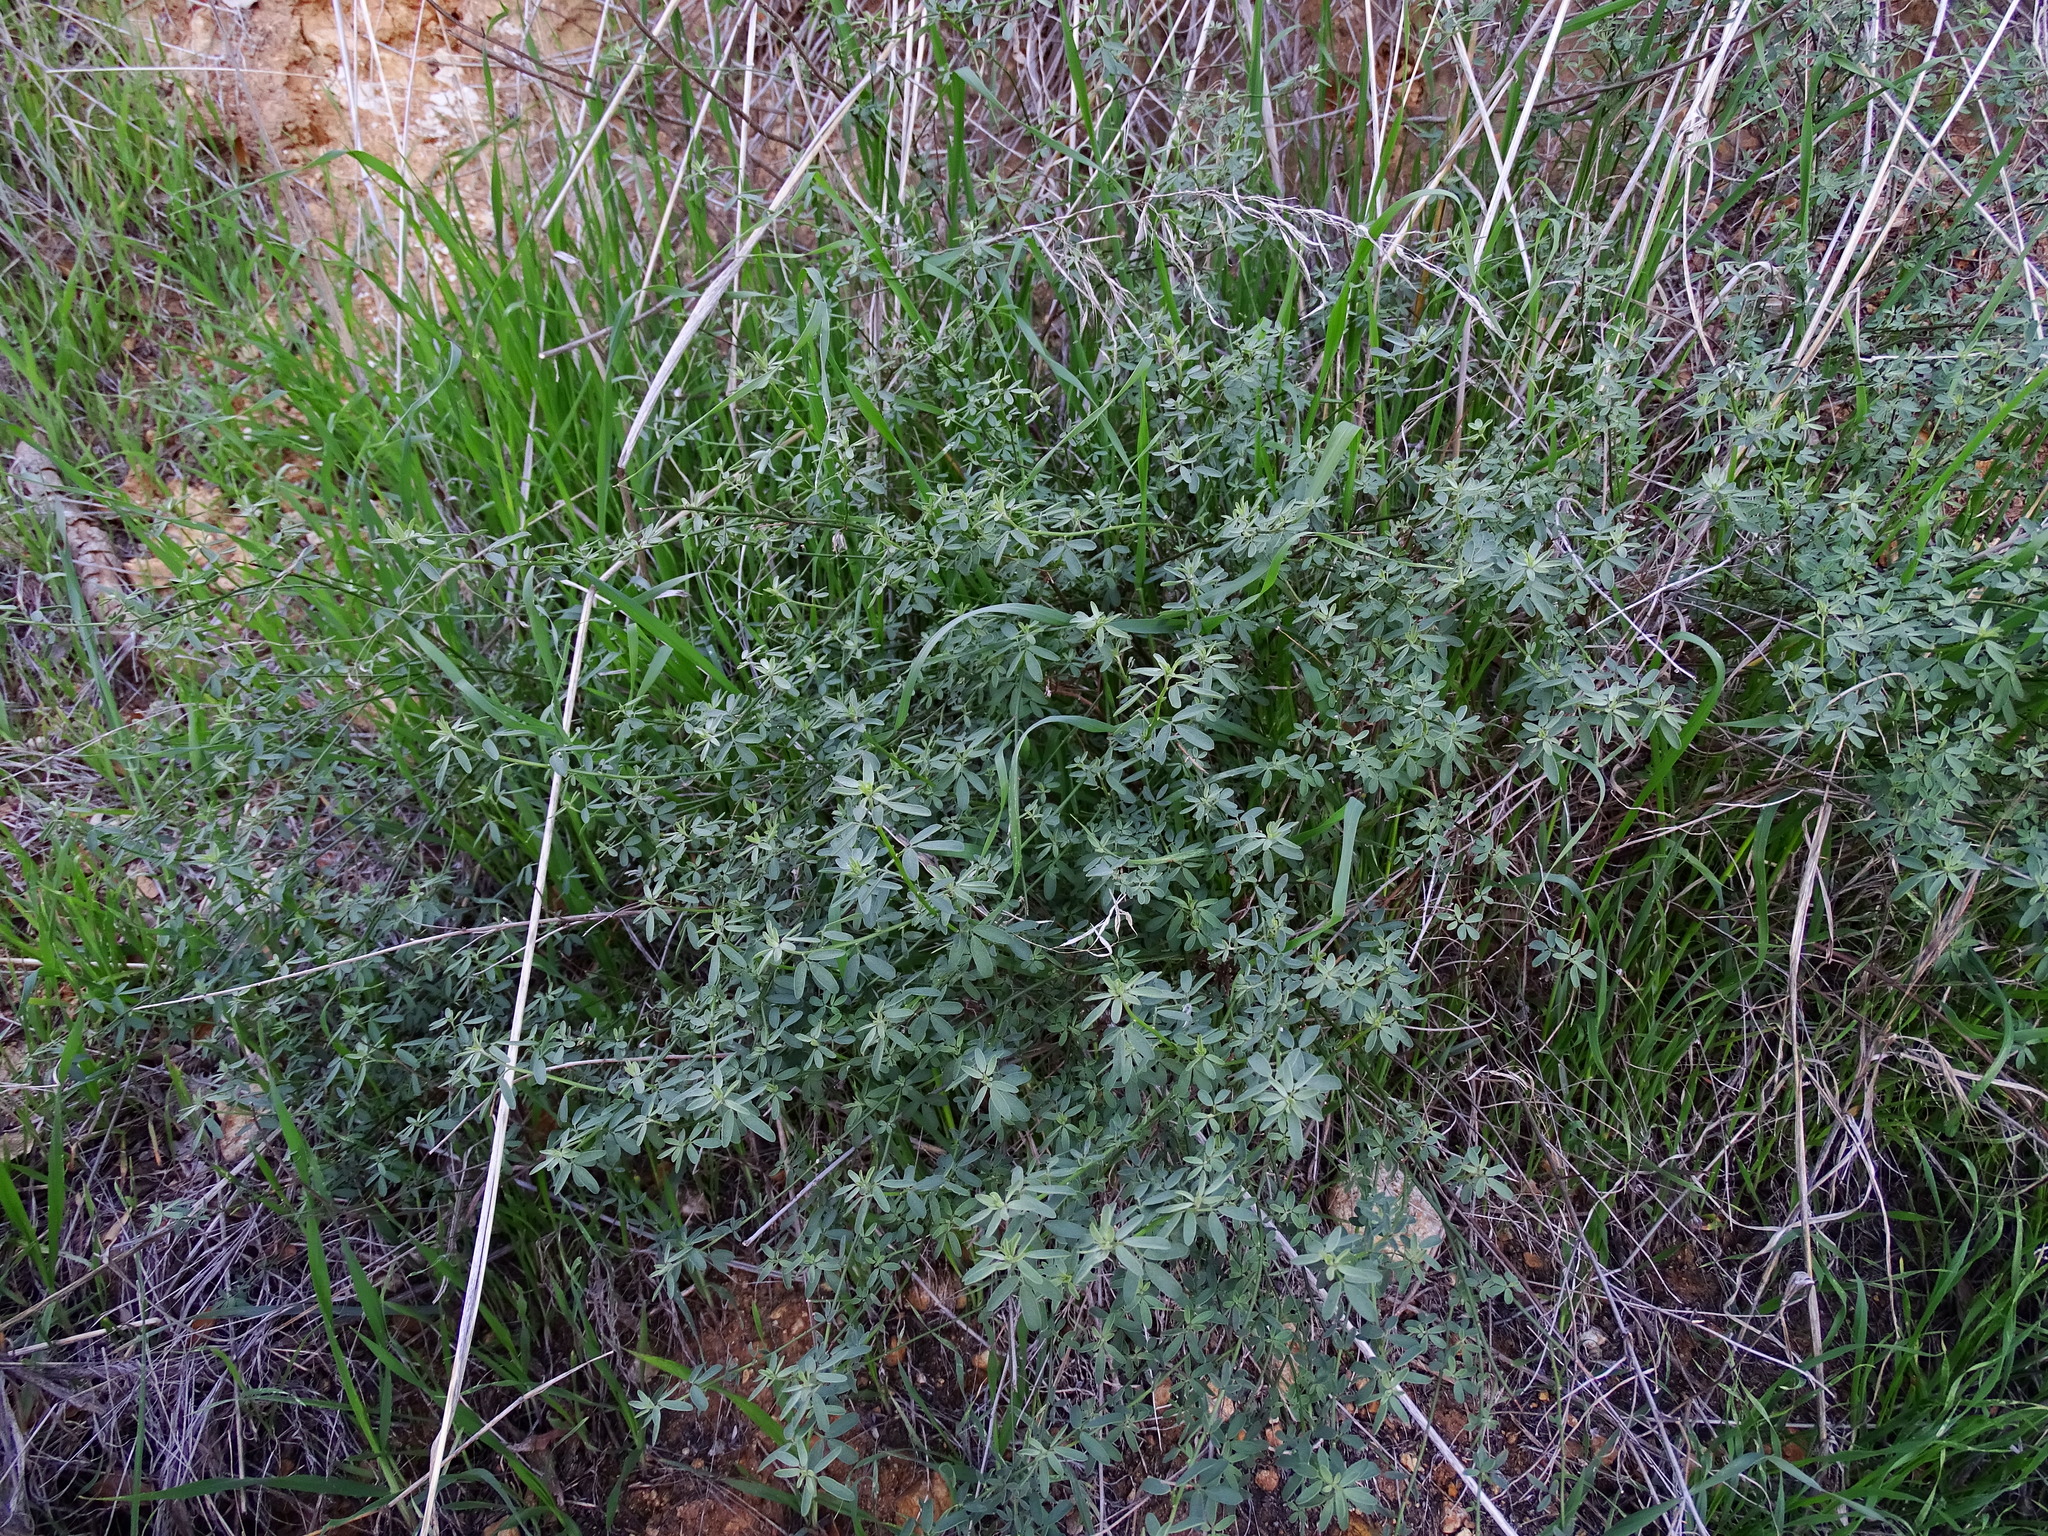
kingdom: Plantae
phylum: Tracheophyta
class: Magnoliopsida
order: Fabales
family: Fabaceae
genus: Acmispon
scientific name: Acmispon glaber
